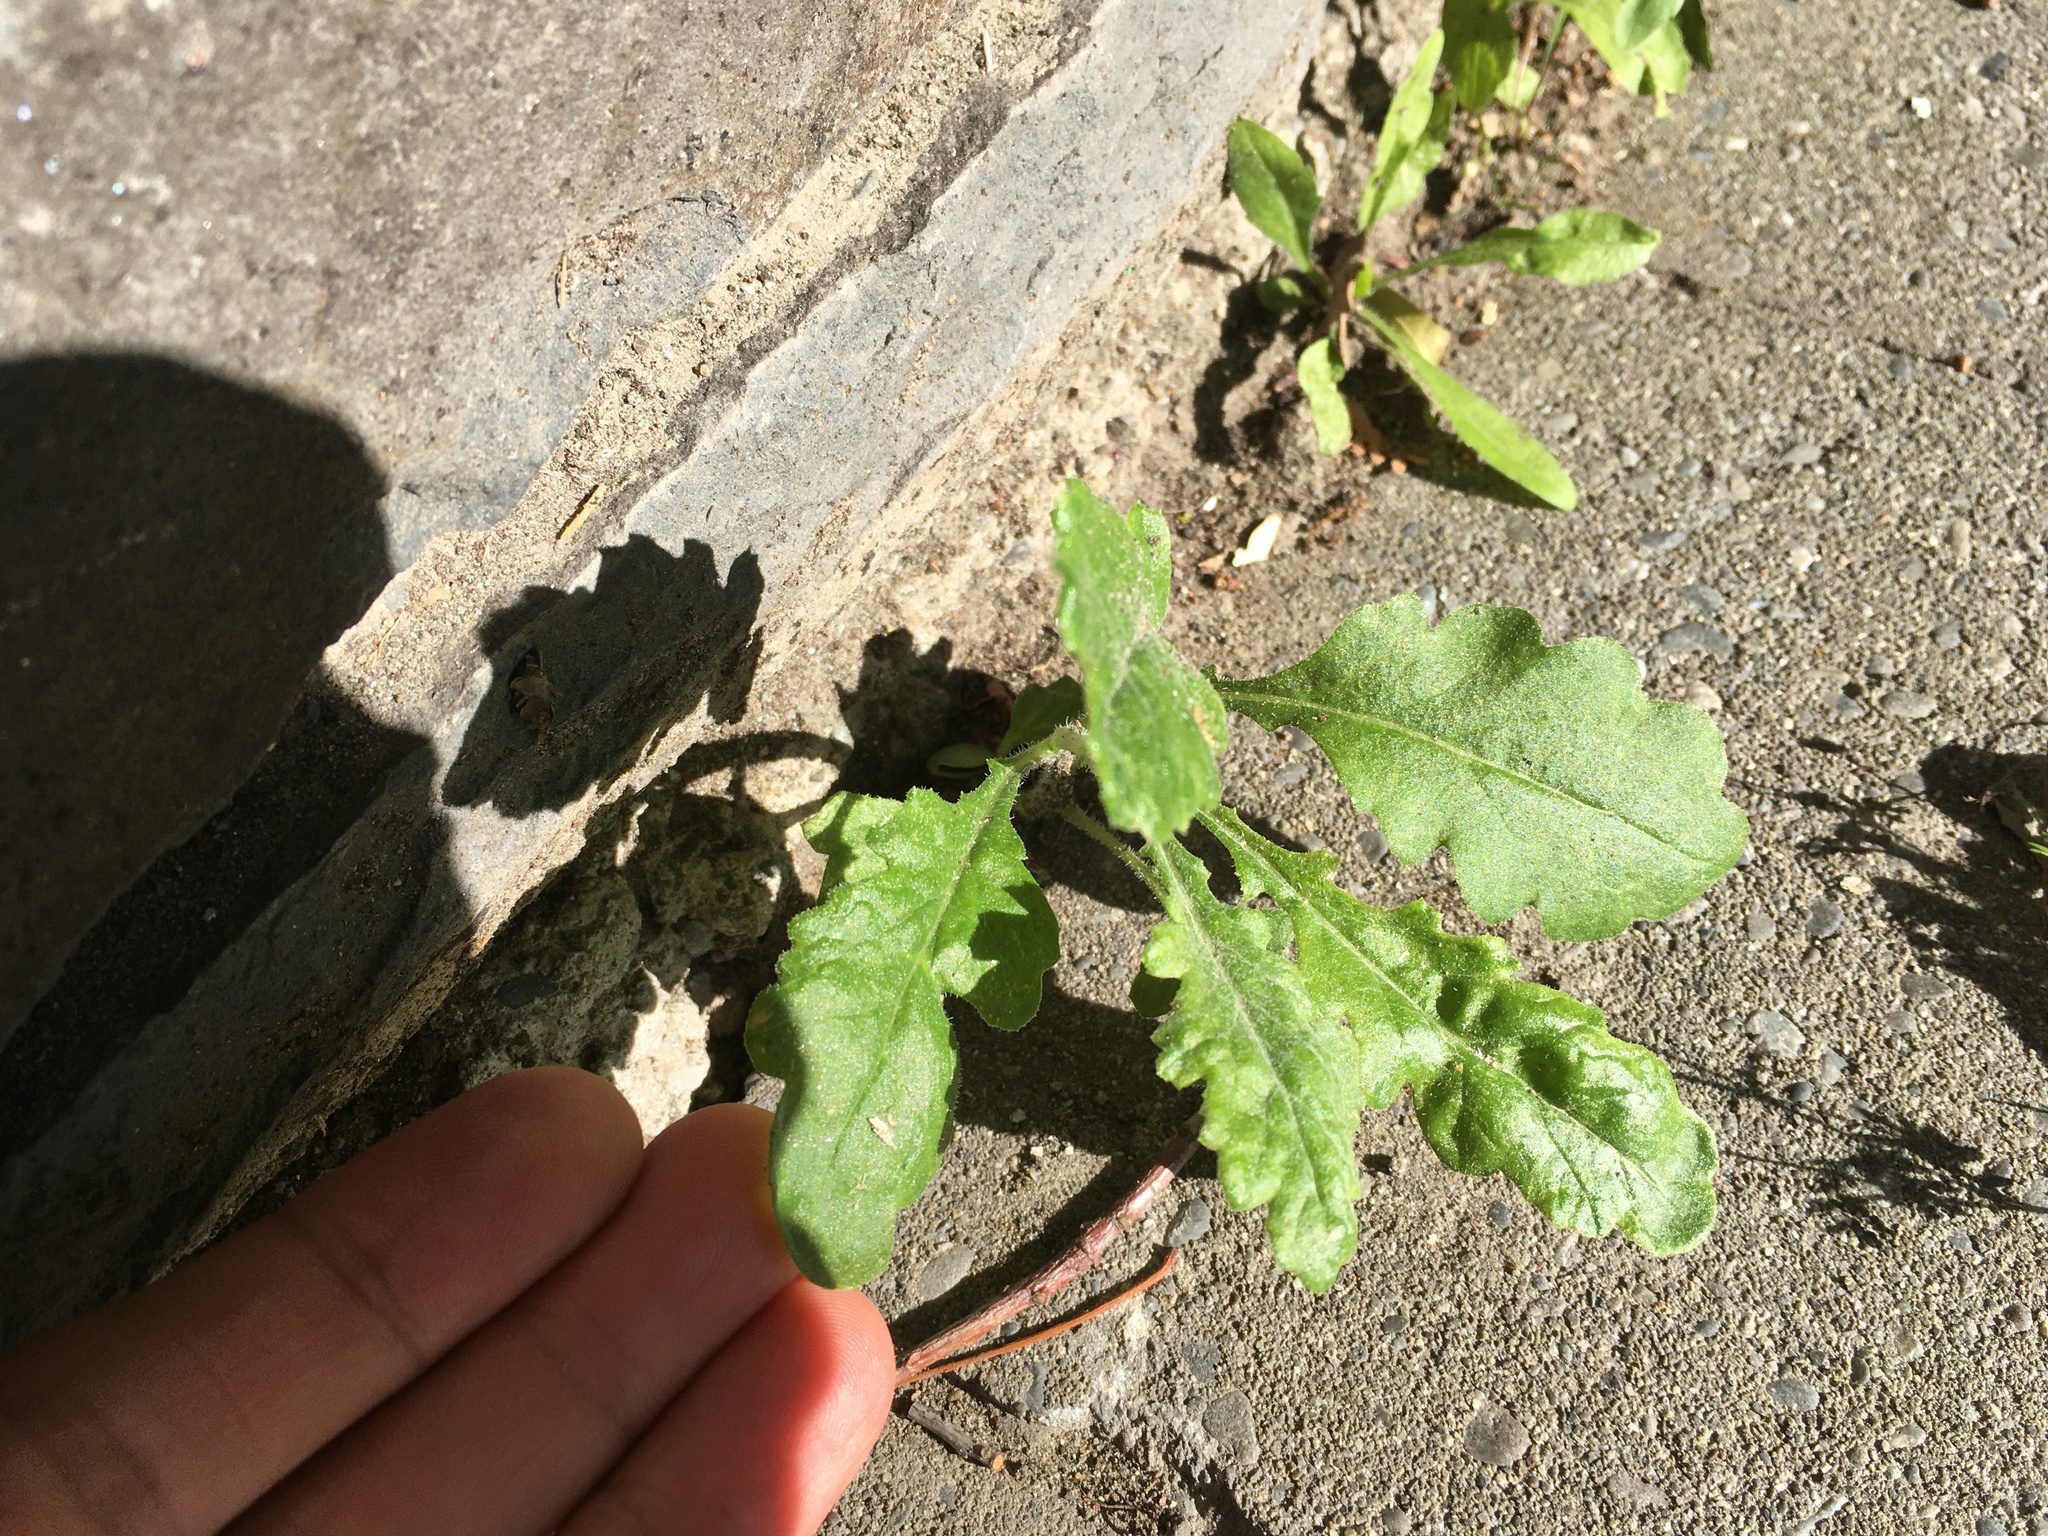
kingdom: Plantae
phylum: Tracheophyta
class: Magnoliopsida
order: Asterales
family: Asteraceae
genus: Senecio
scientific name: Senecio glomeratus
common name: Cutleaf burnweed
